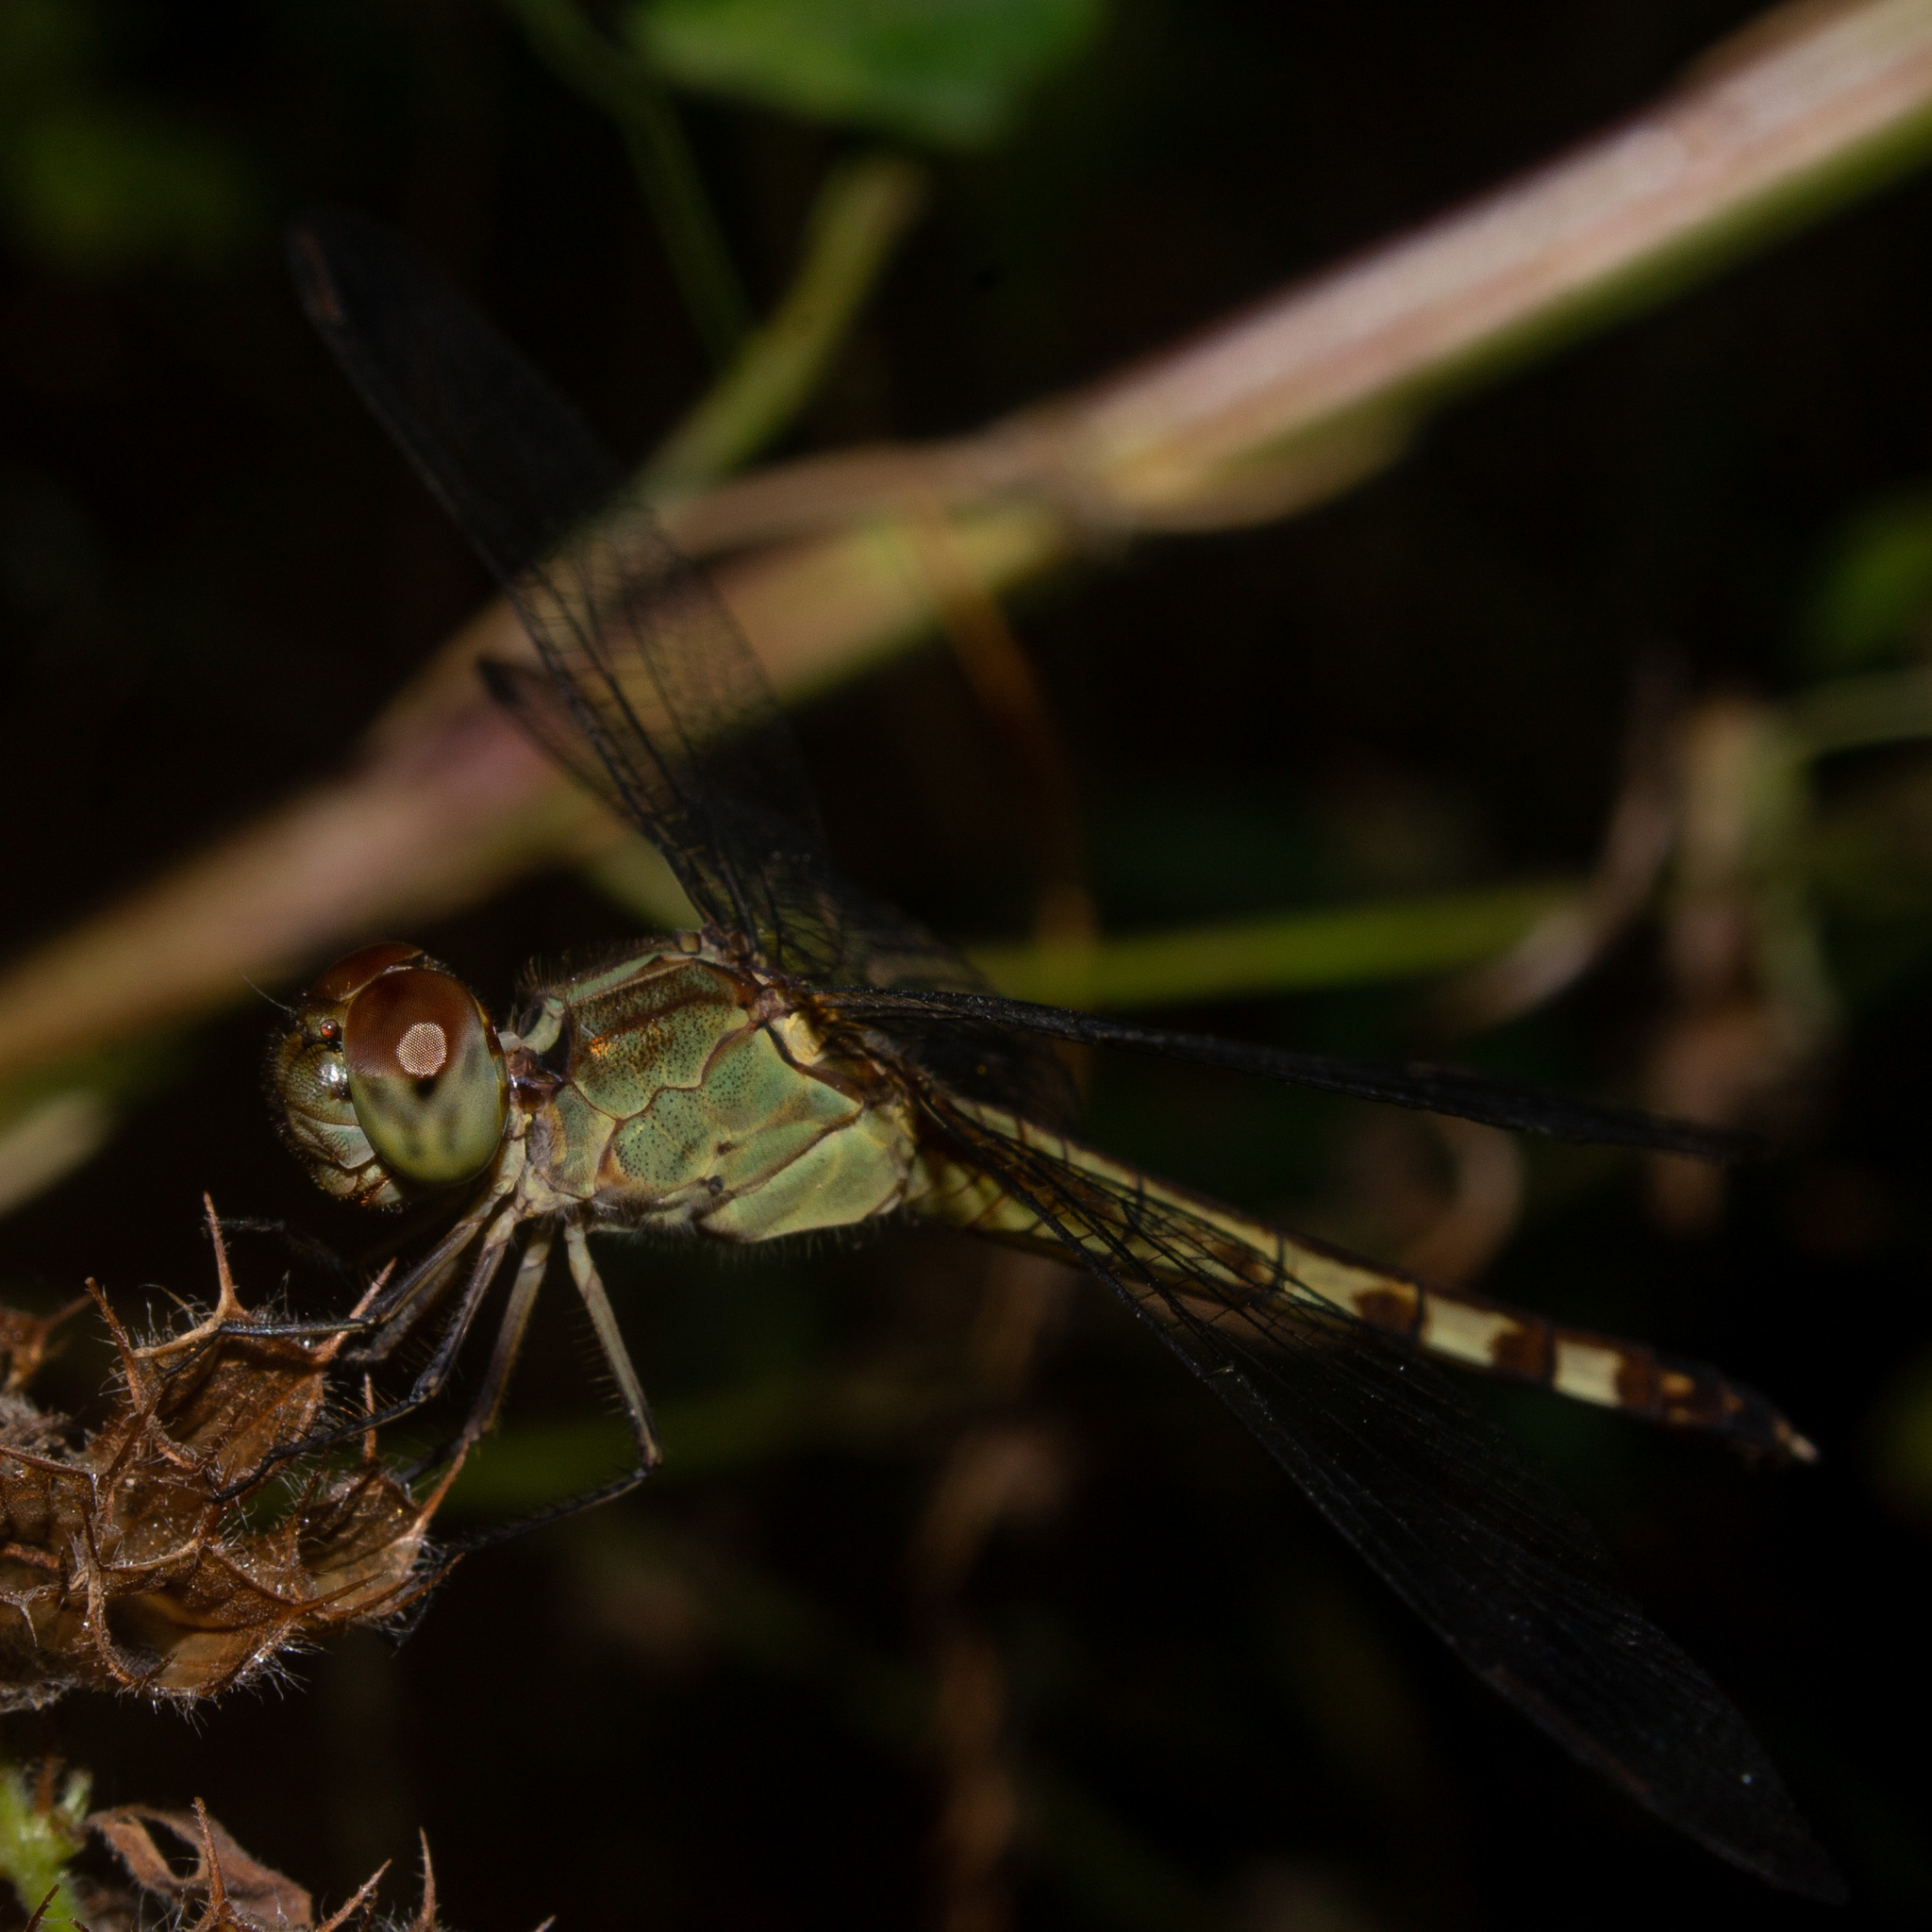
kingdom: Animalia
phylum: Arthropoda
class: Insecta
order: Odonata
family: Libellulidae
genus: Erythrodiplax
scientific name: Erythrodiplax umbrata
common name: Band-winged dragonlet
